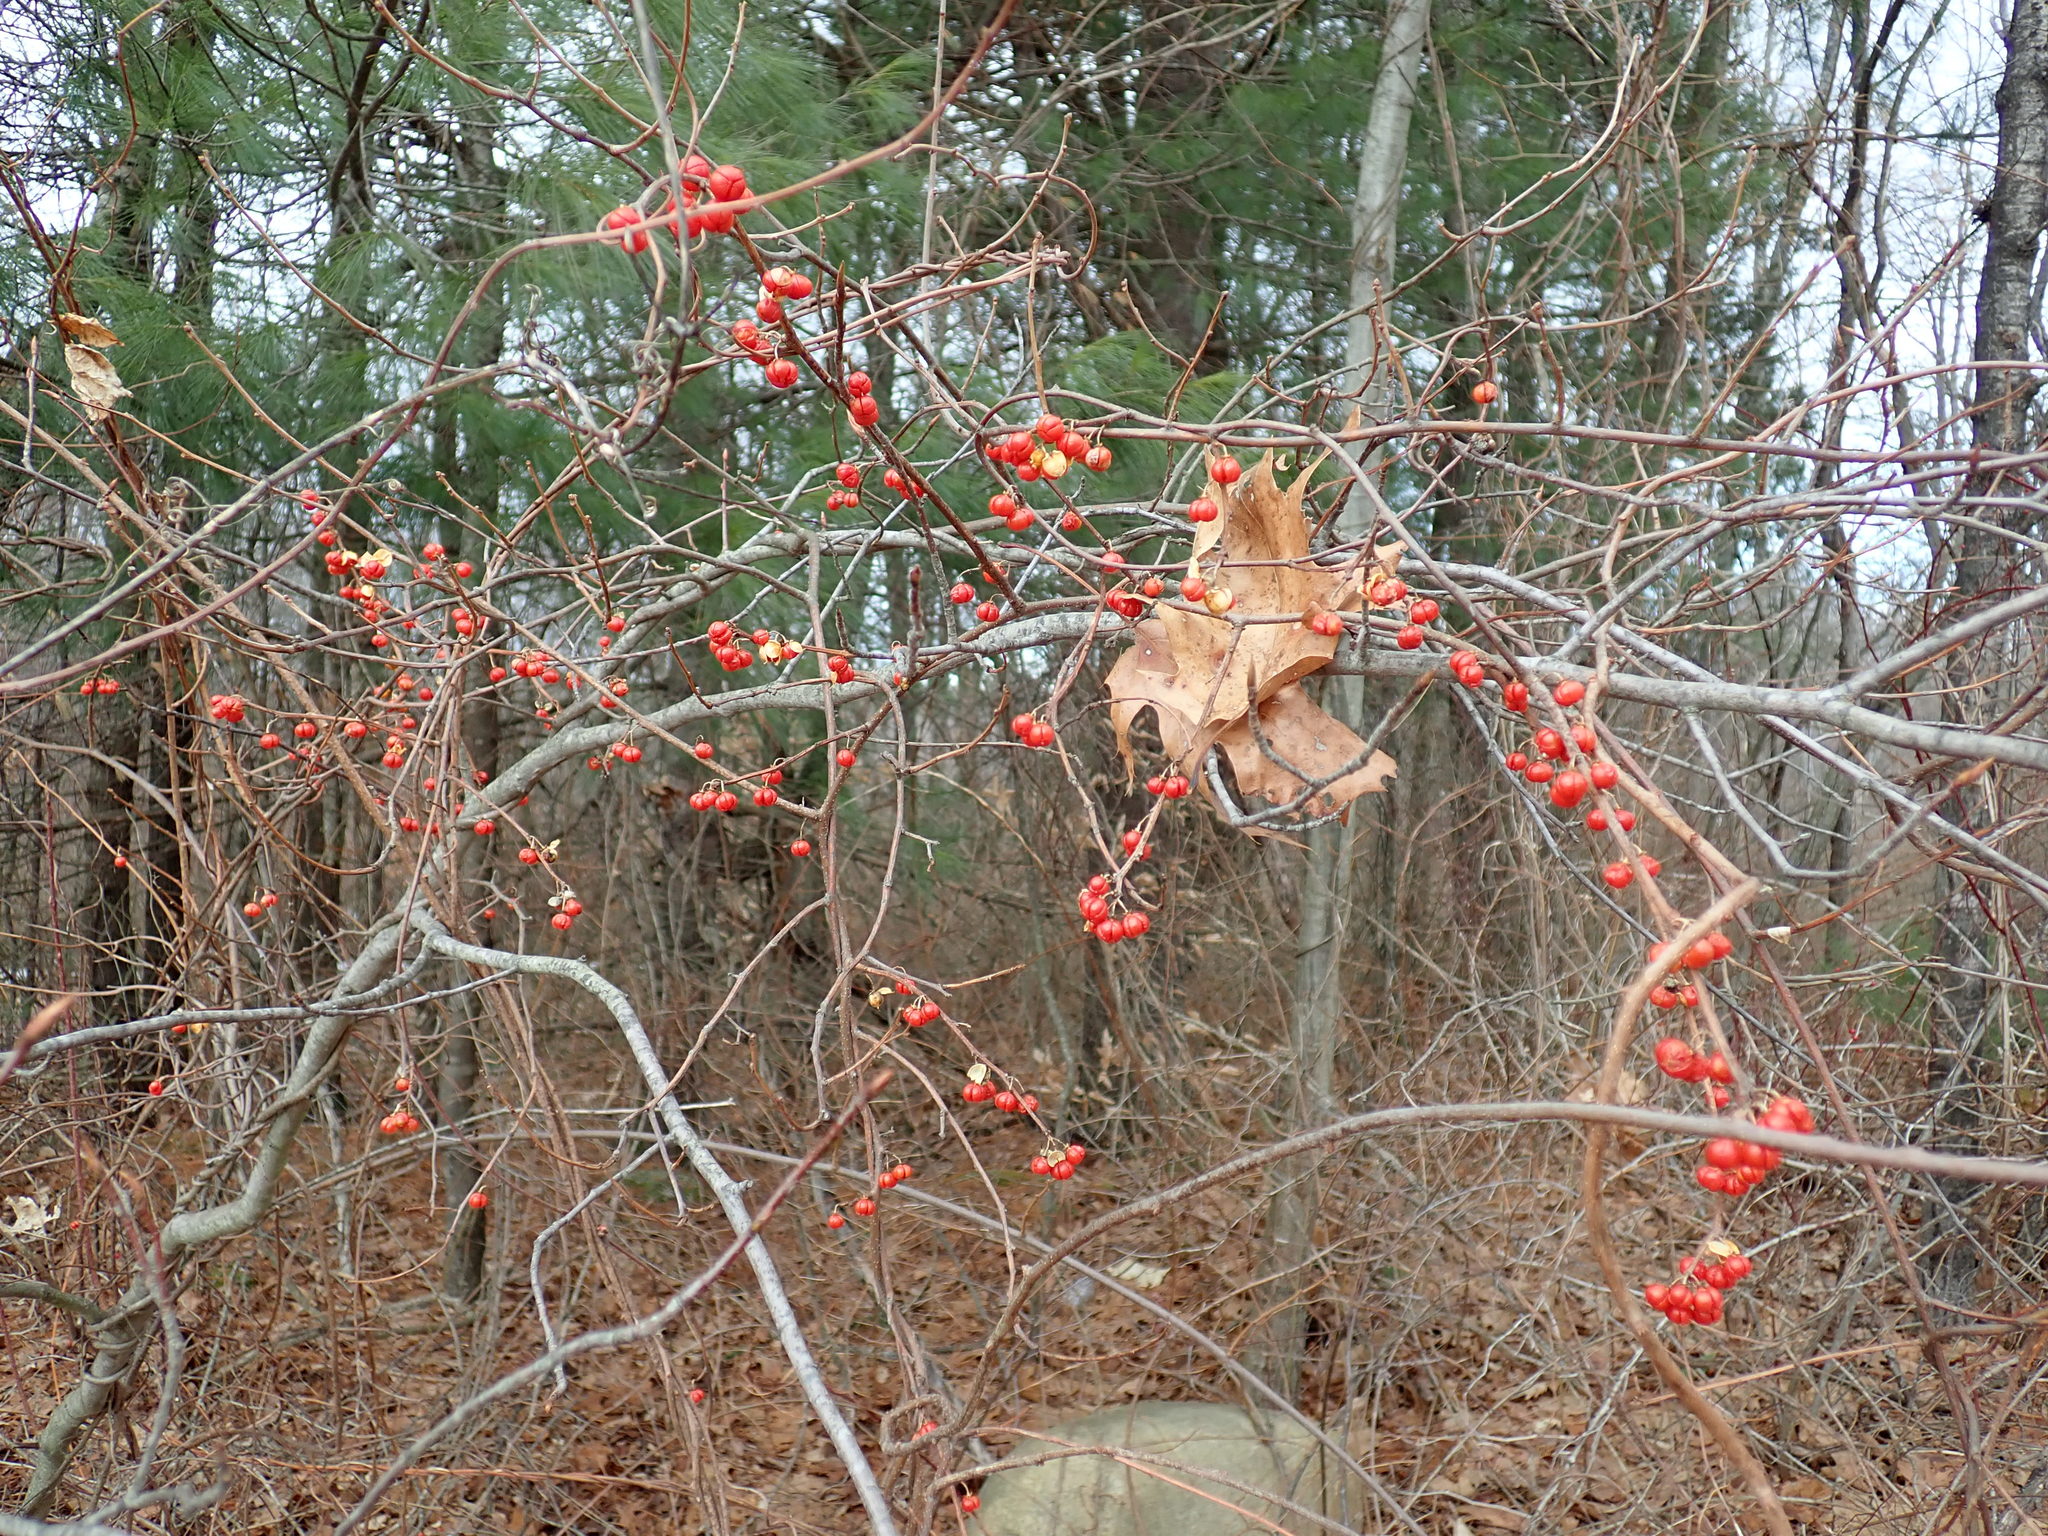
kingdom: Plantae
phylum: Tracheophyta
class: Magnoliopsida
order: Celastrales
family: Celastraceae
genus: Celastrus
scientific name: Celastrus orbiculatus
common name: Oriental bittersweet
